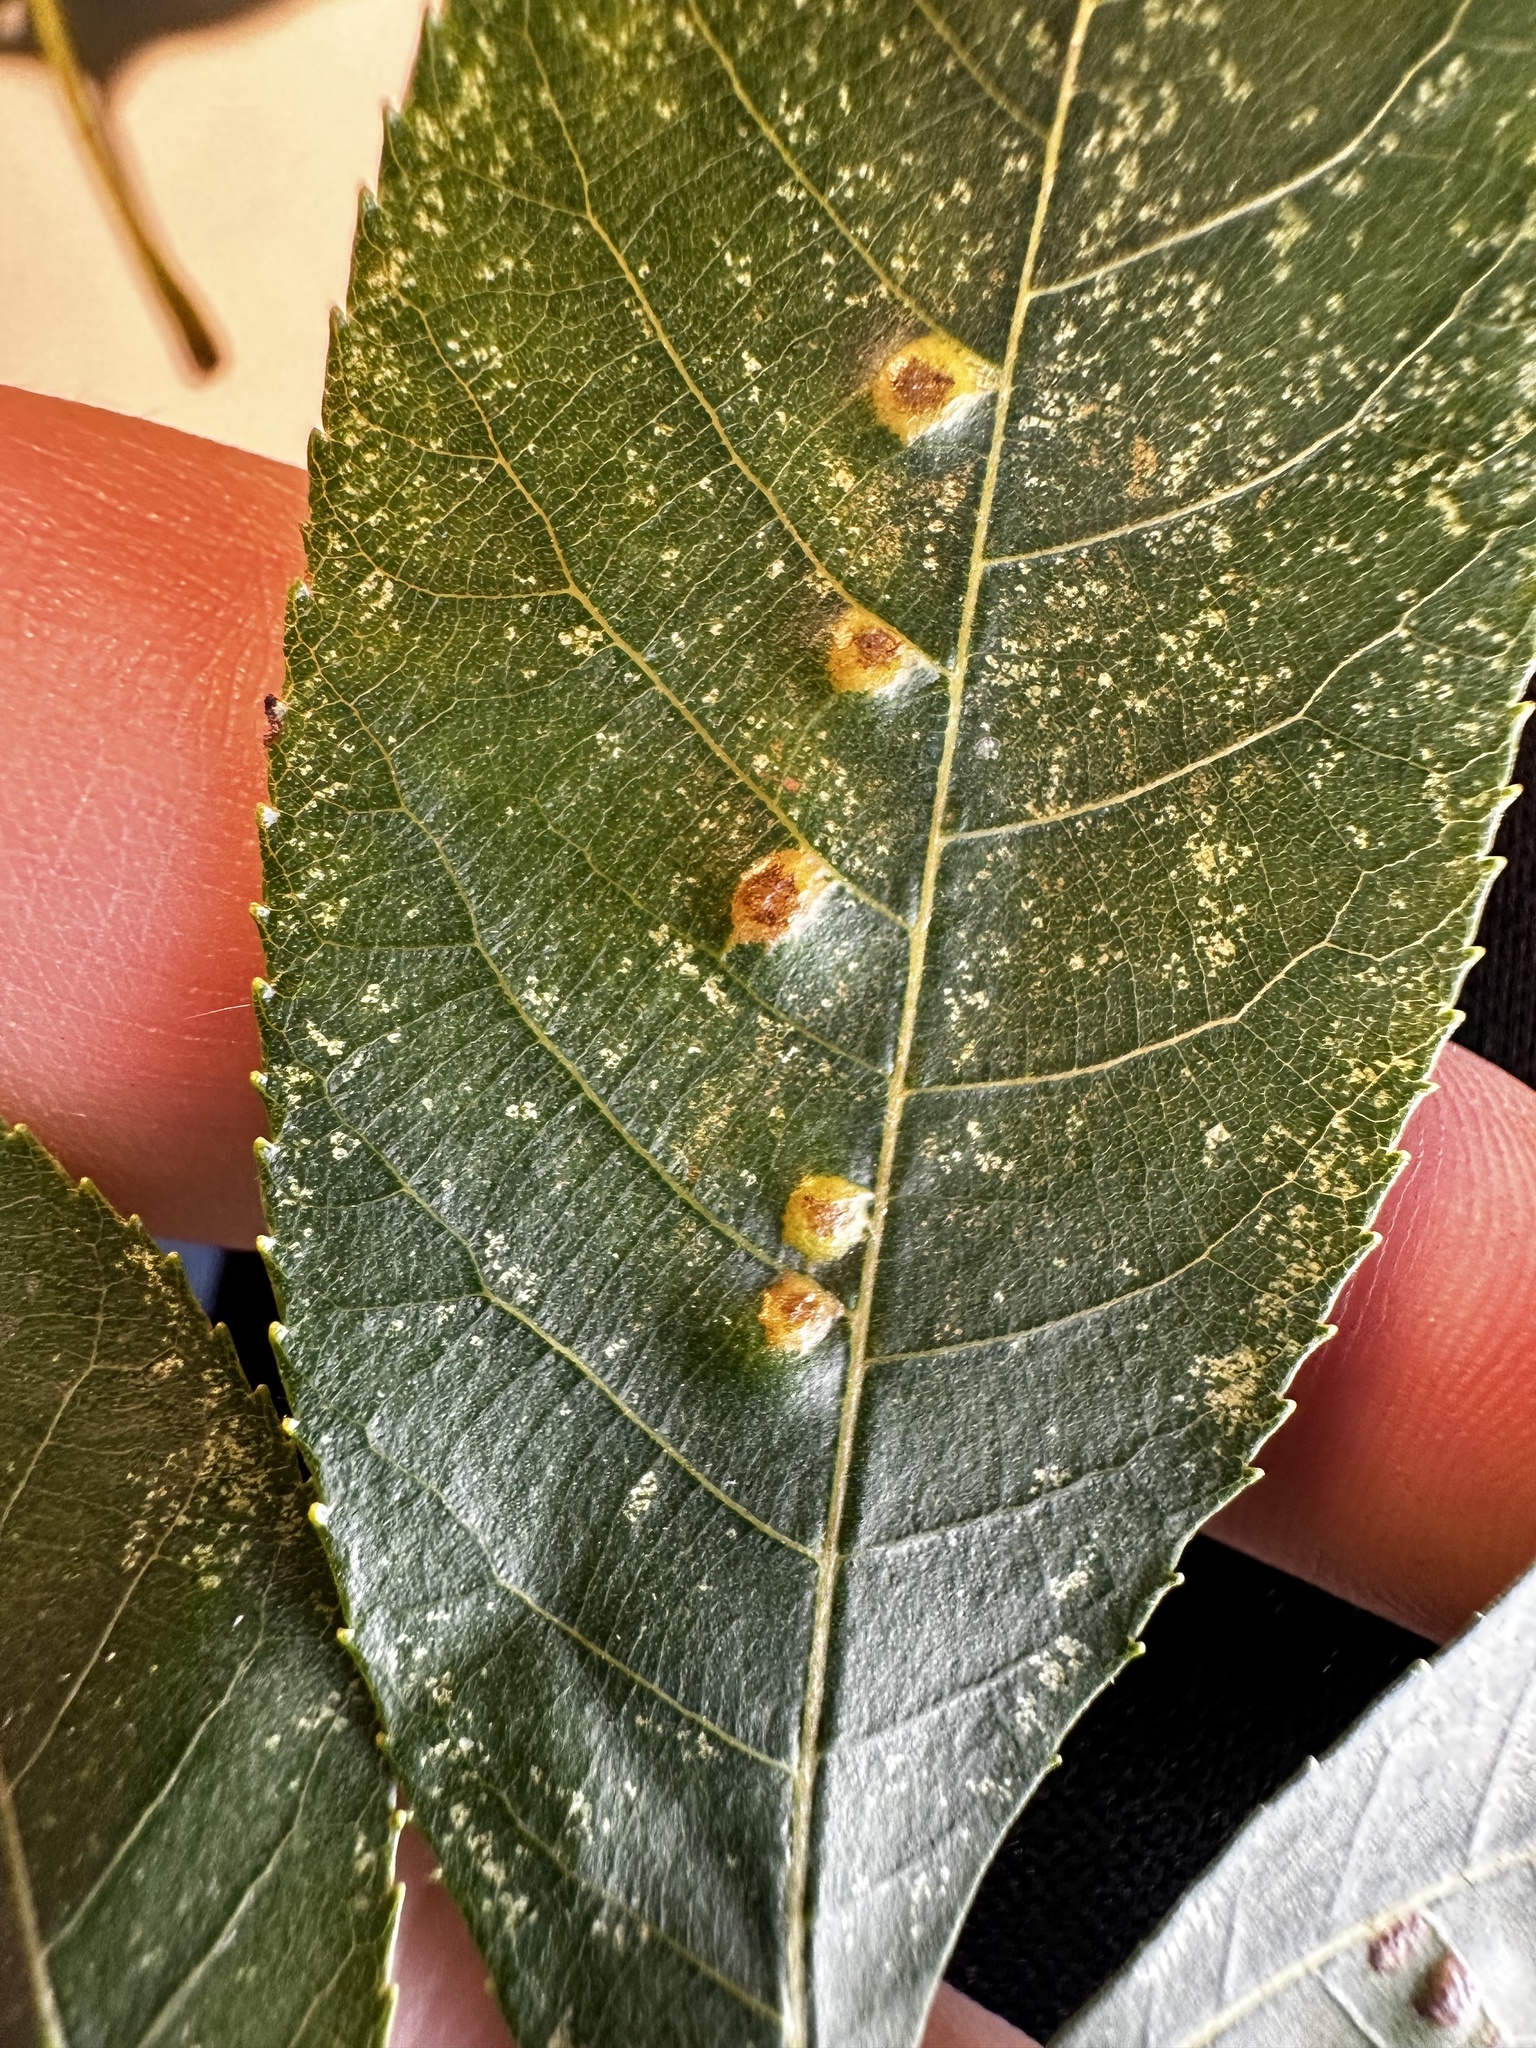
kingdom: Animalia
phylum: Arthropoda
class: Insecta
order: Diptera
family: Cecidomyiidae
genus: Caryomyia
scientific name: Caryomyia conoidea
